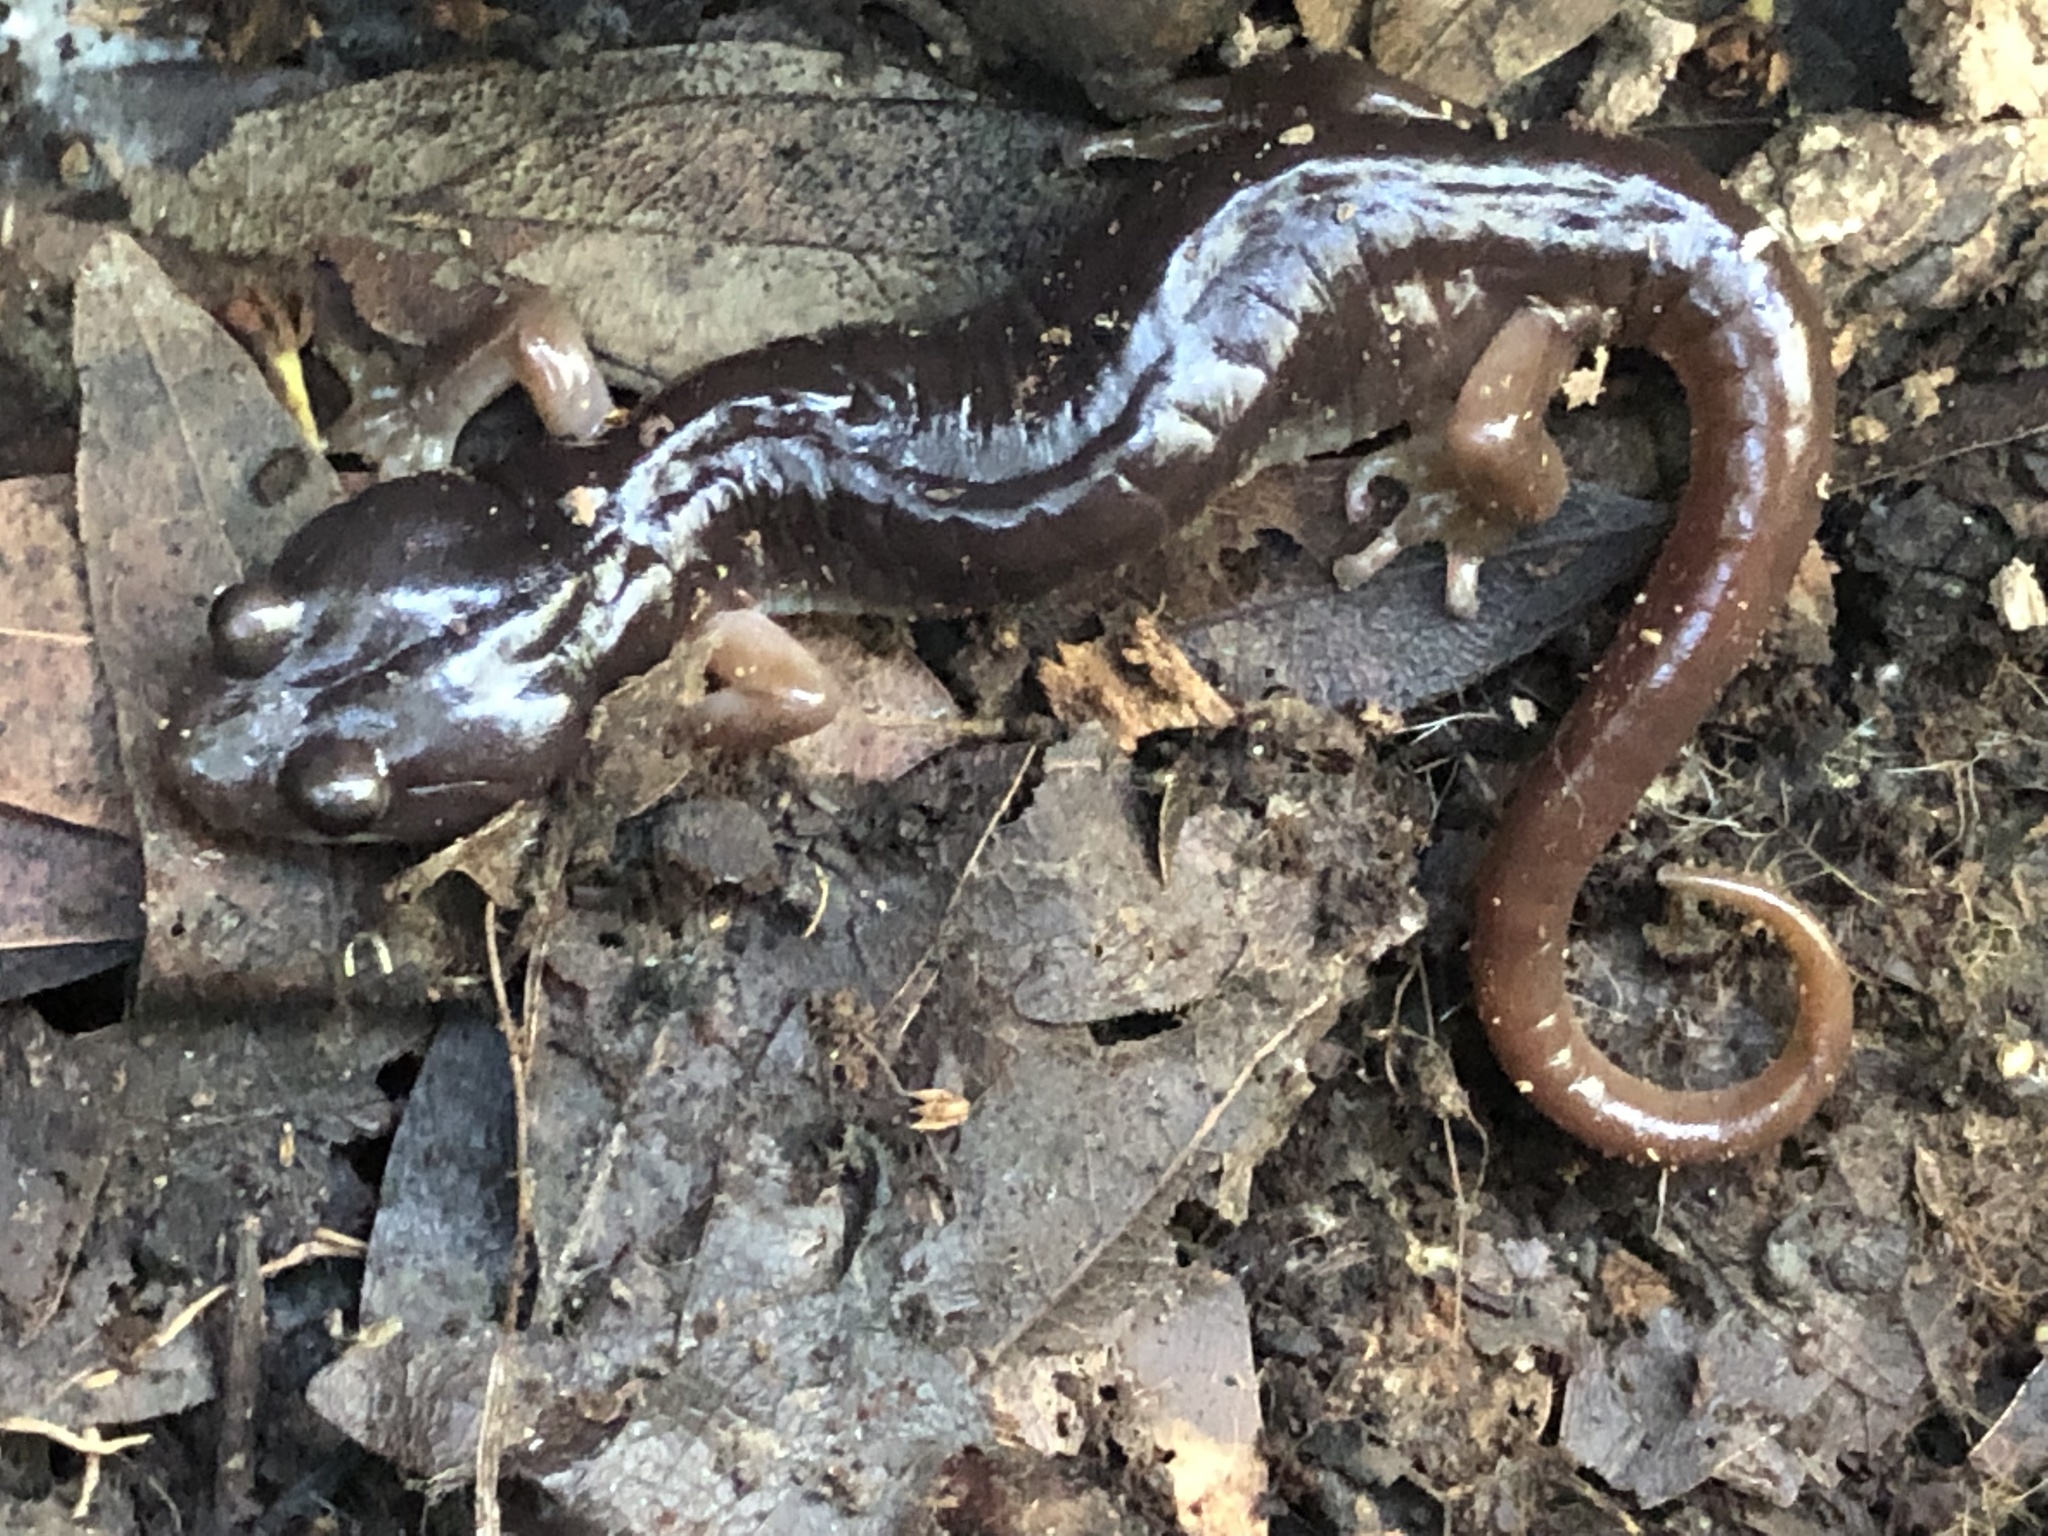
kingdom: Animalia
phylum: Chordata
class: Amphibia
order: Caudata
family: Plethodontidae
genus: Aneides
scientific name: Aneides lugubris
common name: Arboreal salamander
